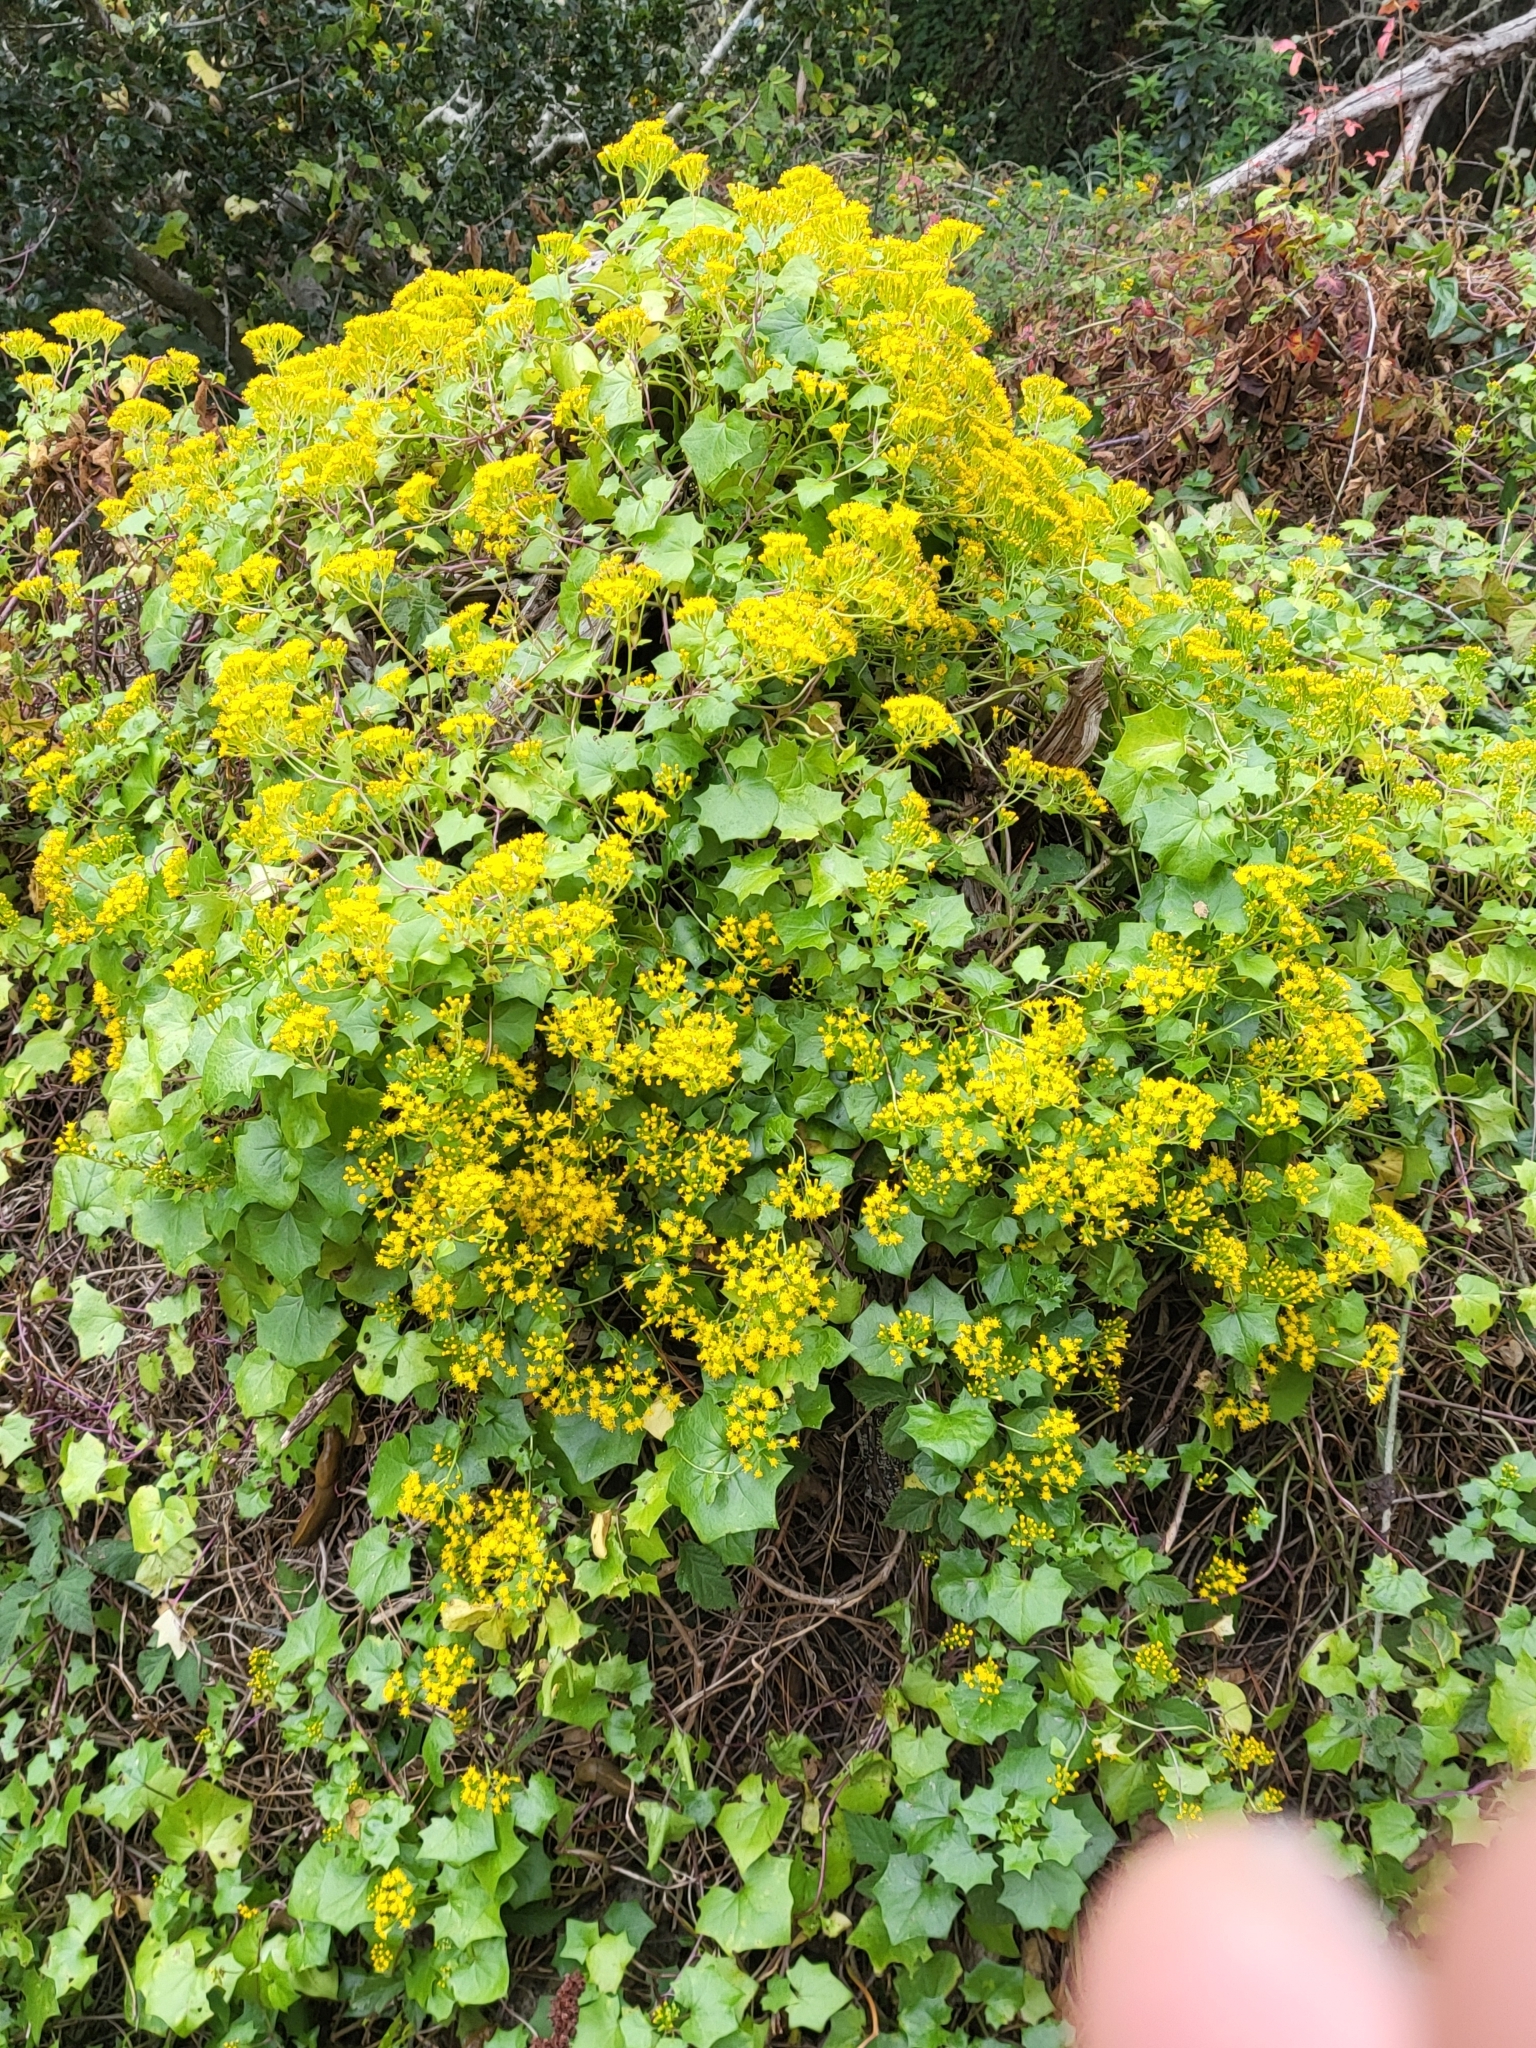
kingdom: Plantae
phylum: Tracheophyta
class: Magnoliopsida
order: Asterales
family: Asteraceae
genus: Delairea
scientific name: Delairea odorata
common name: Cape-ivy
